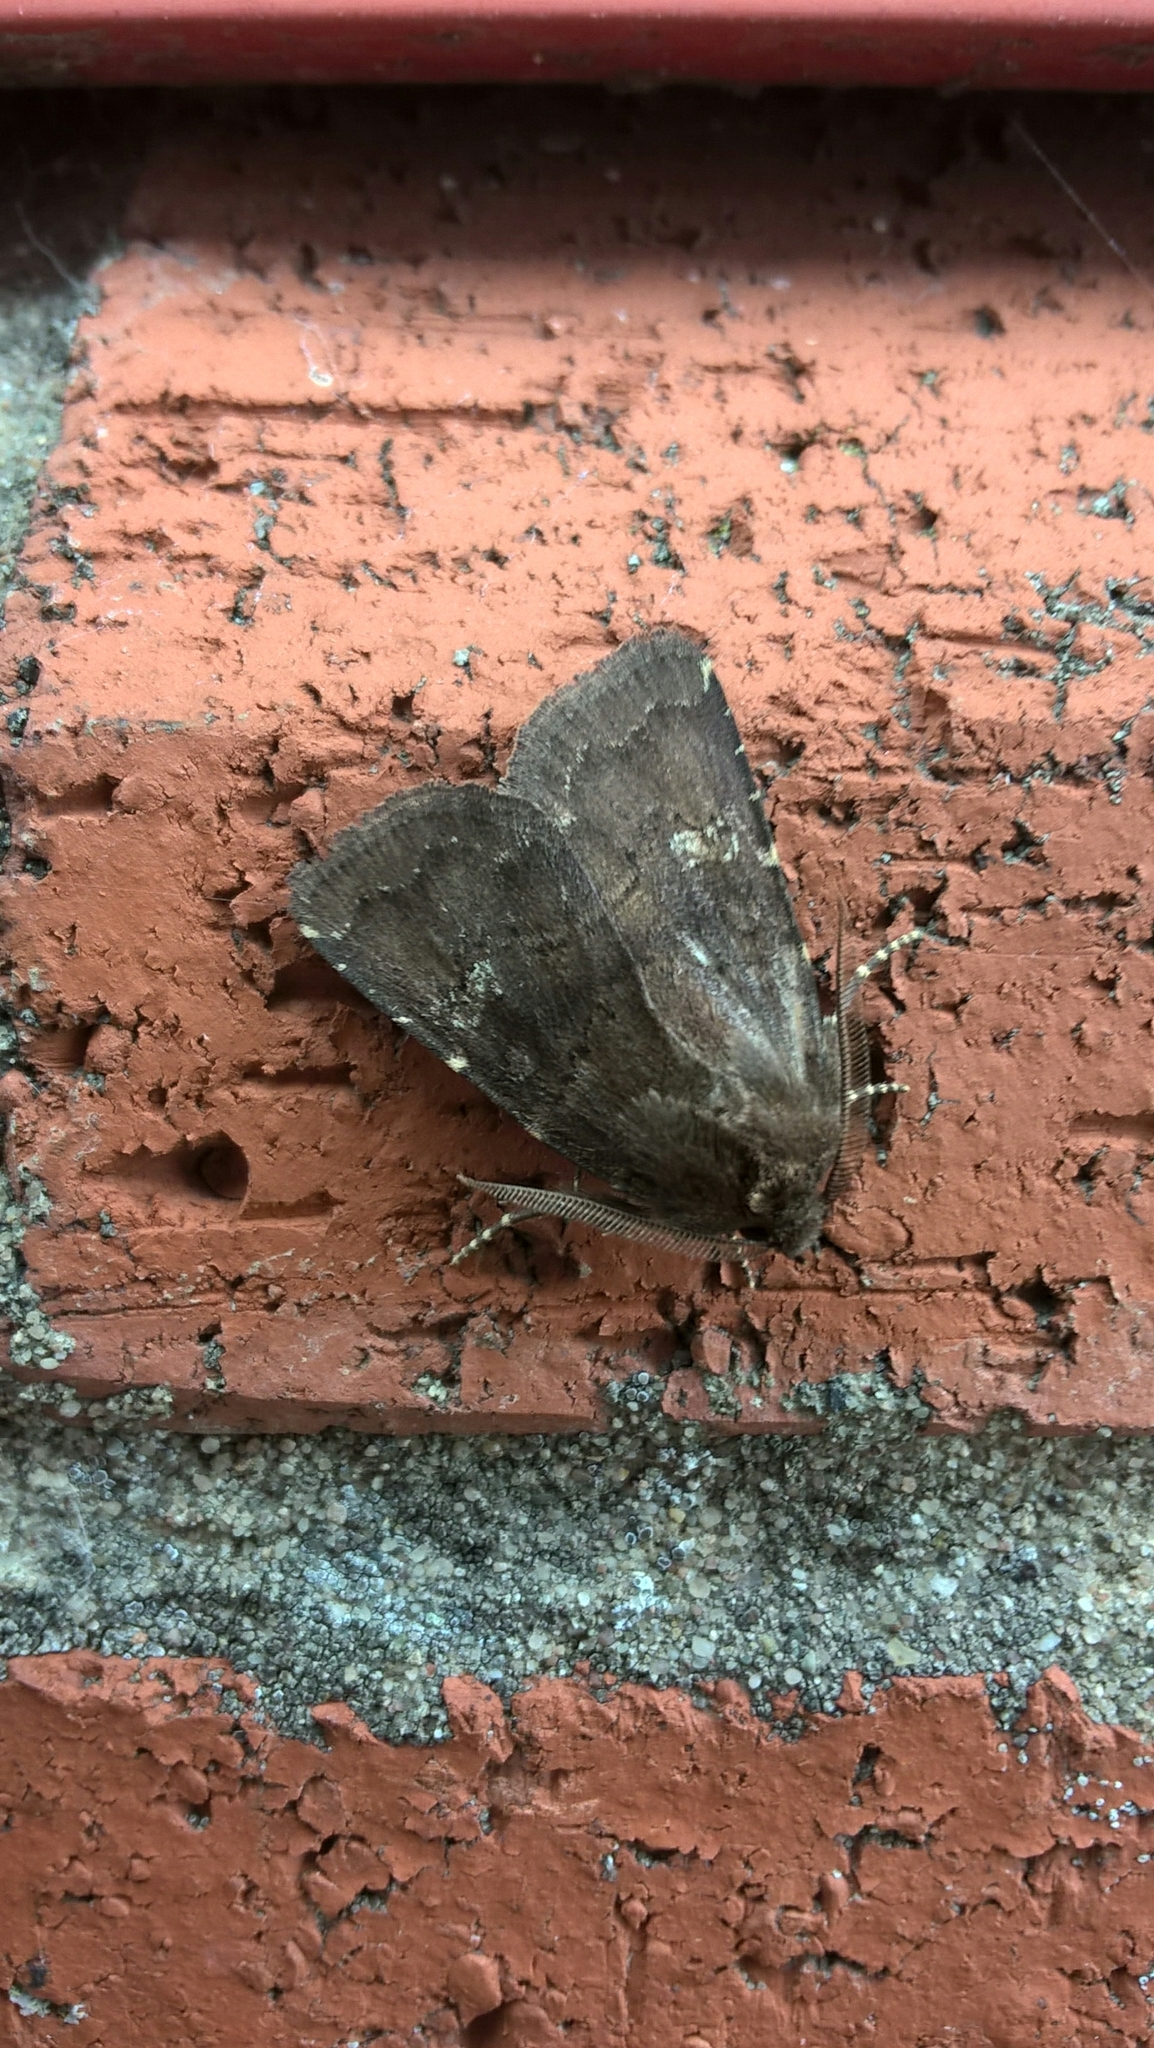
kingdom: Animalia
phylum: Arthropoda
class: Insecta
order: Lepidoptera
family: Noctuidae
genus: Charanyca
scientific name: Charanyca ferruginea
